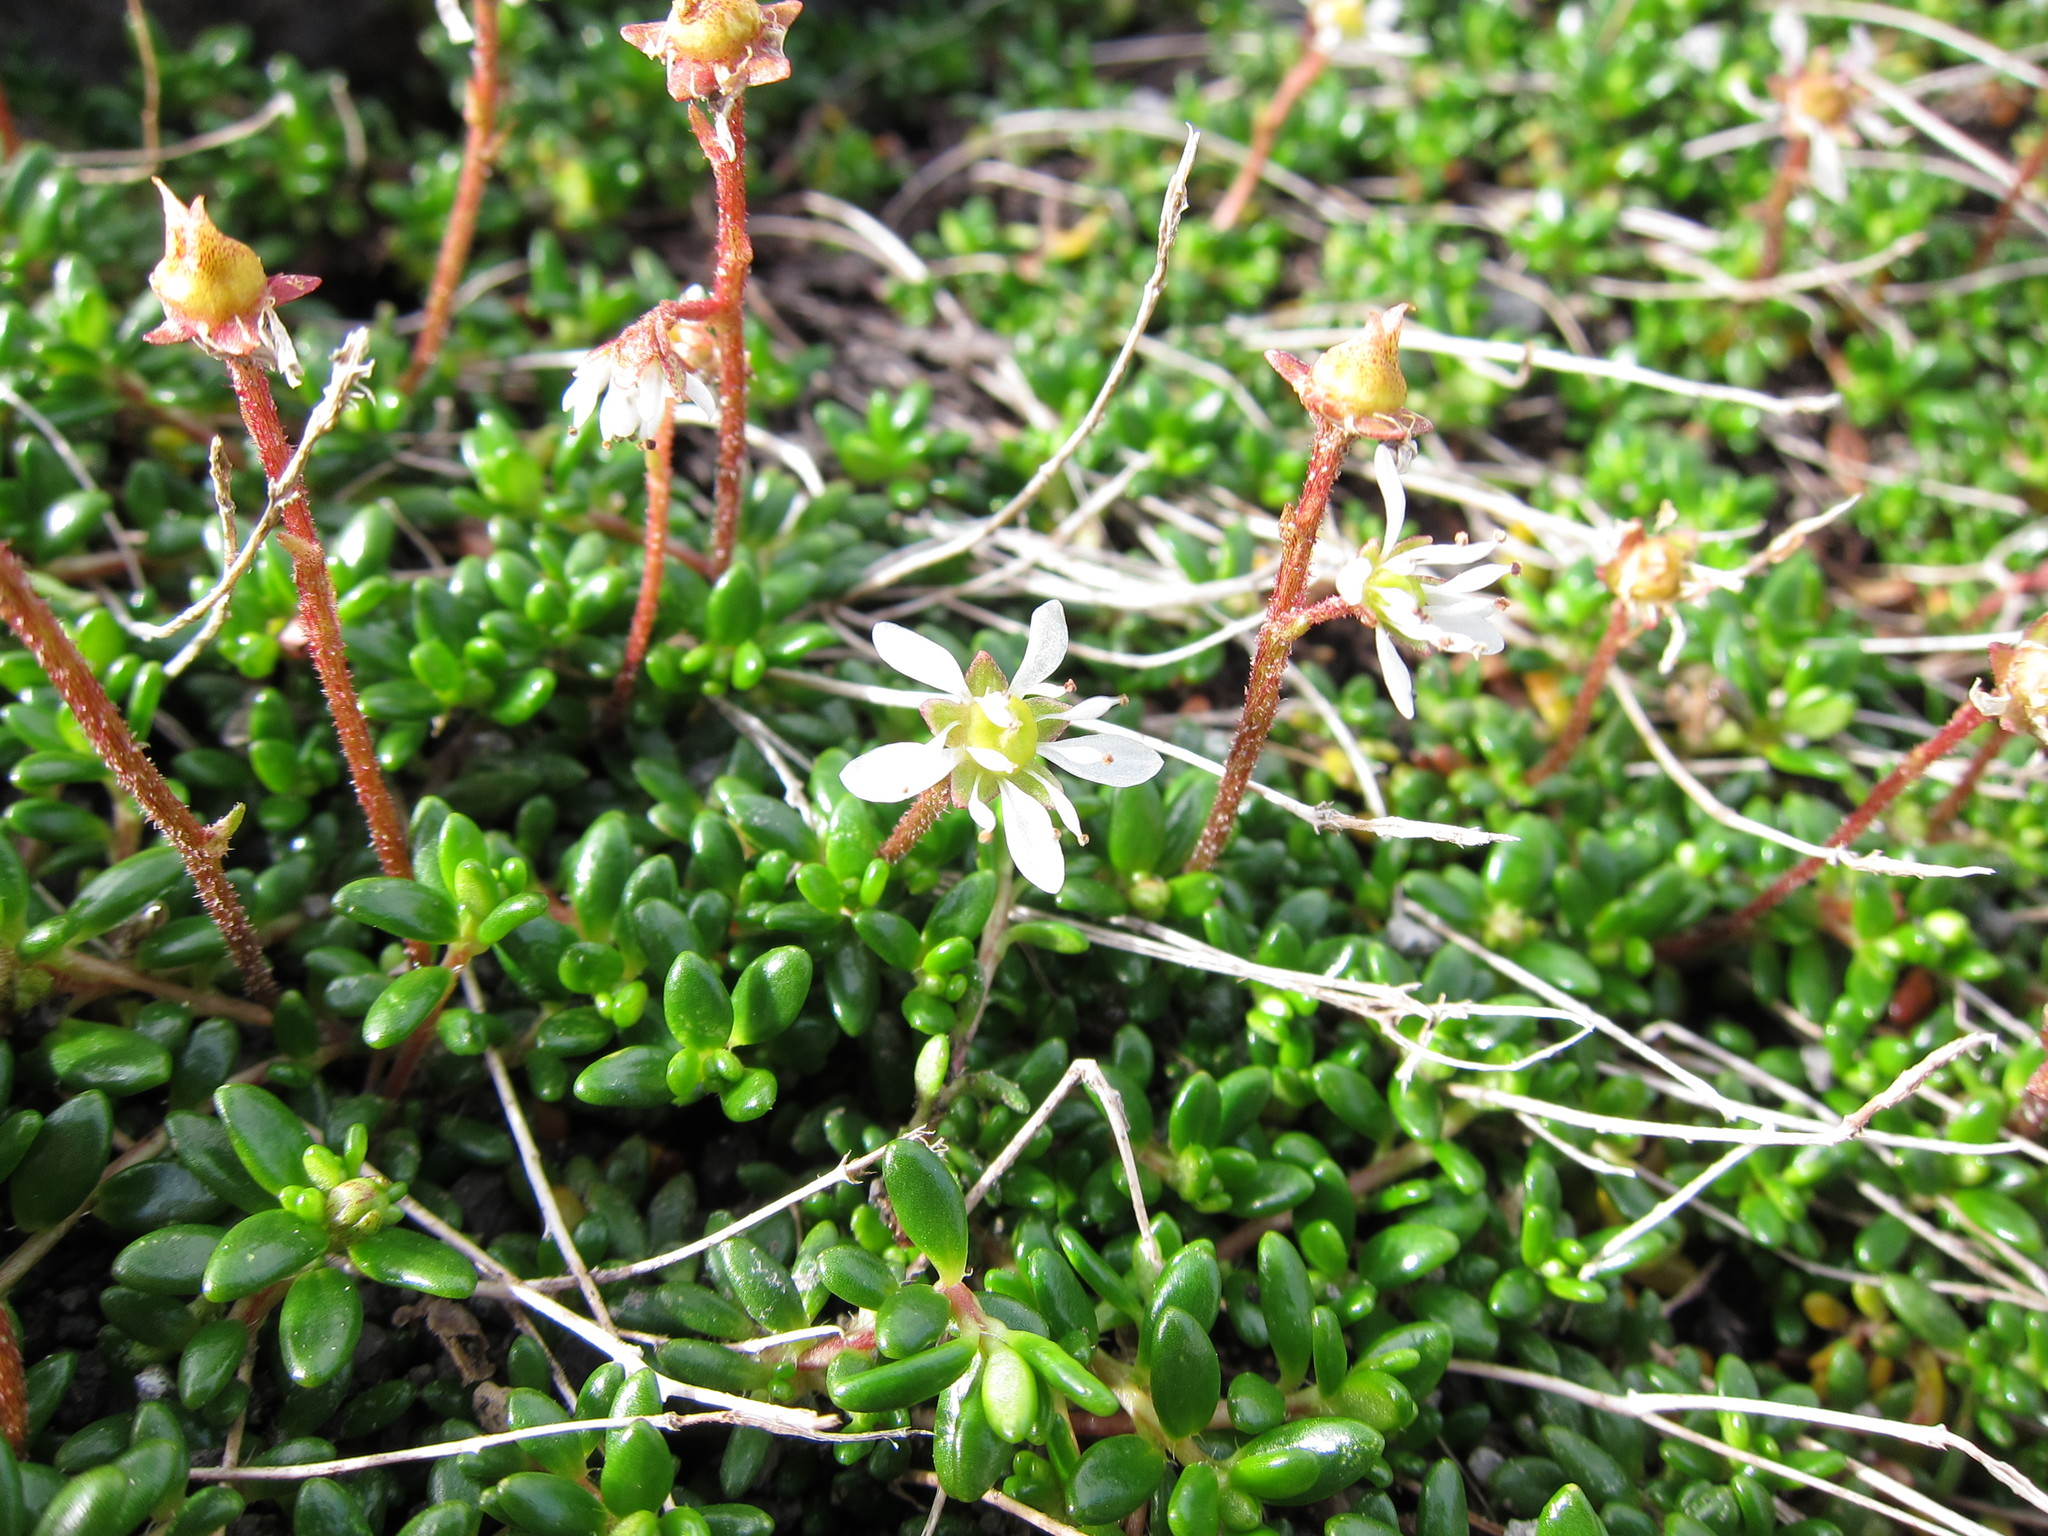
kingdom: Plantae
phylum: Tracheophyta
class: Magnoliopsida
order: Saxifragales
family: Saxifragaceae
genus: Micranthes
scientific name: Micranthes tolmiei
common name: Tolmie's saxifrage
